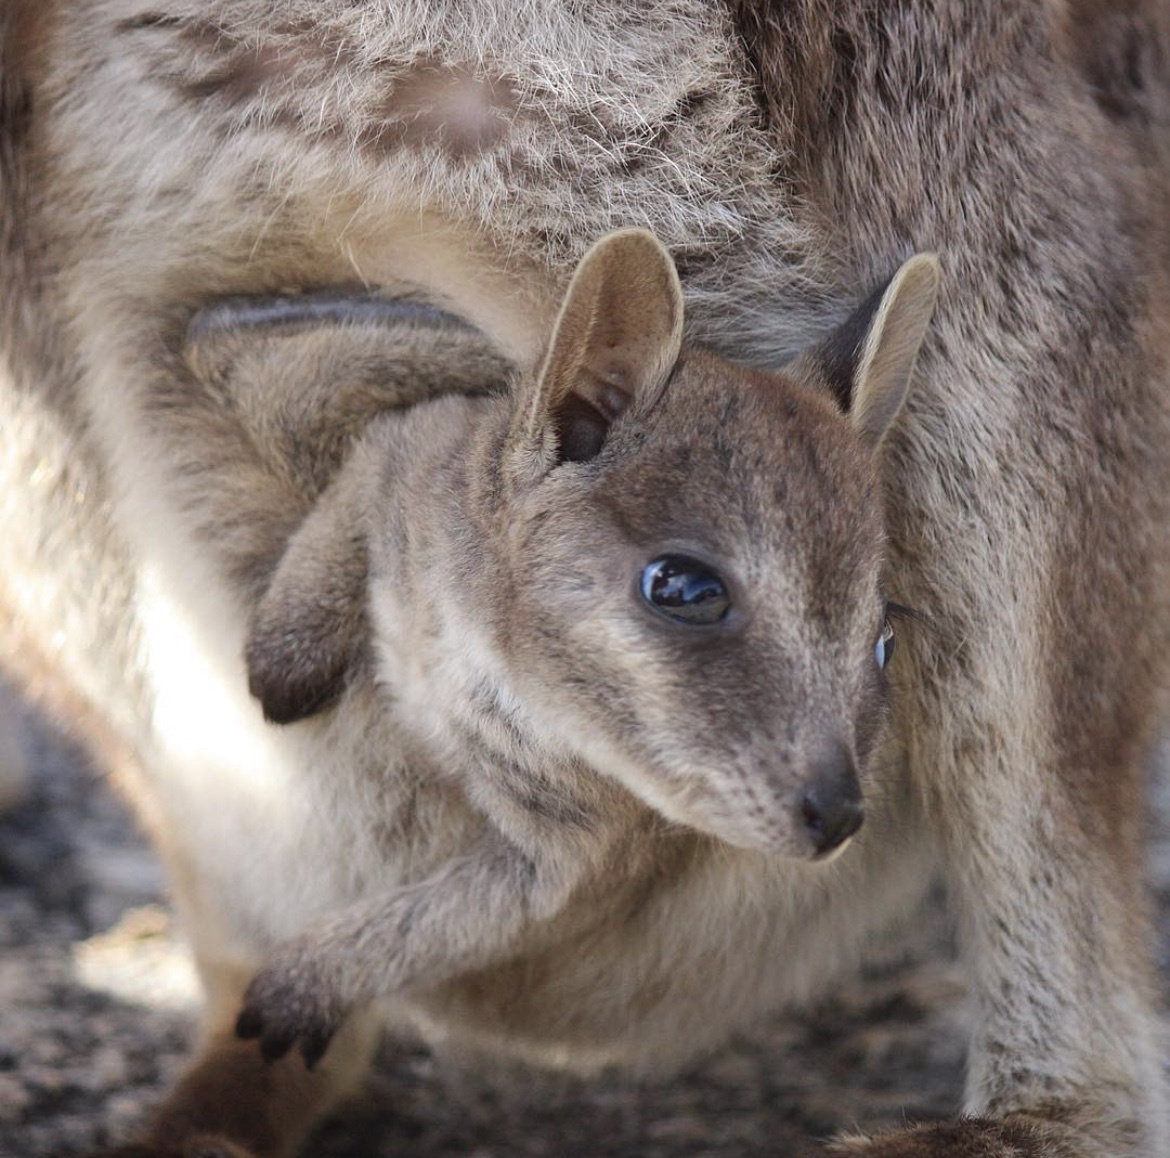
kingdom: Animalia
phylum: Chordata
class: Mammalia
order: Diprotodontia
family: Macropodidae
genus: Petrogale
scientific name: Petrogale mareeba
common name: Mareeba rock-wallaby
